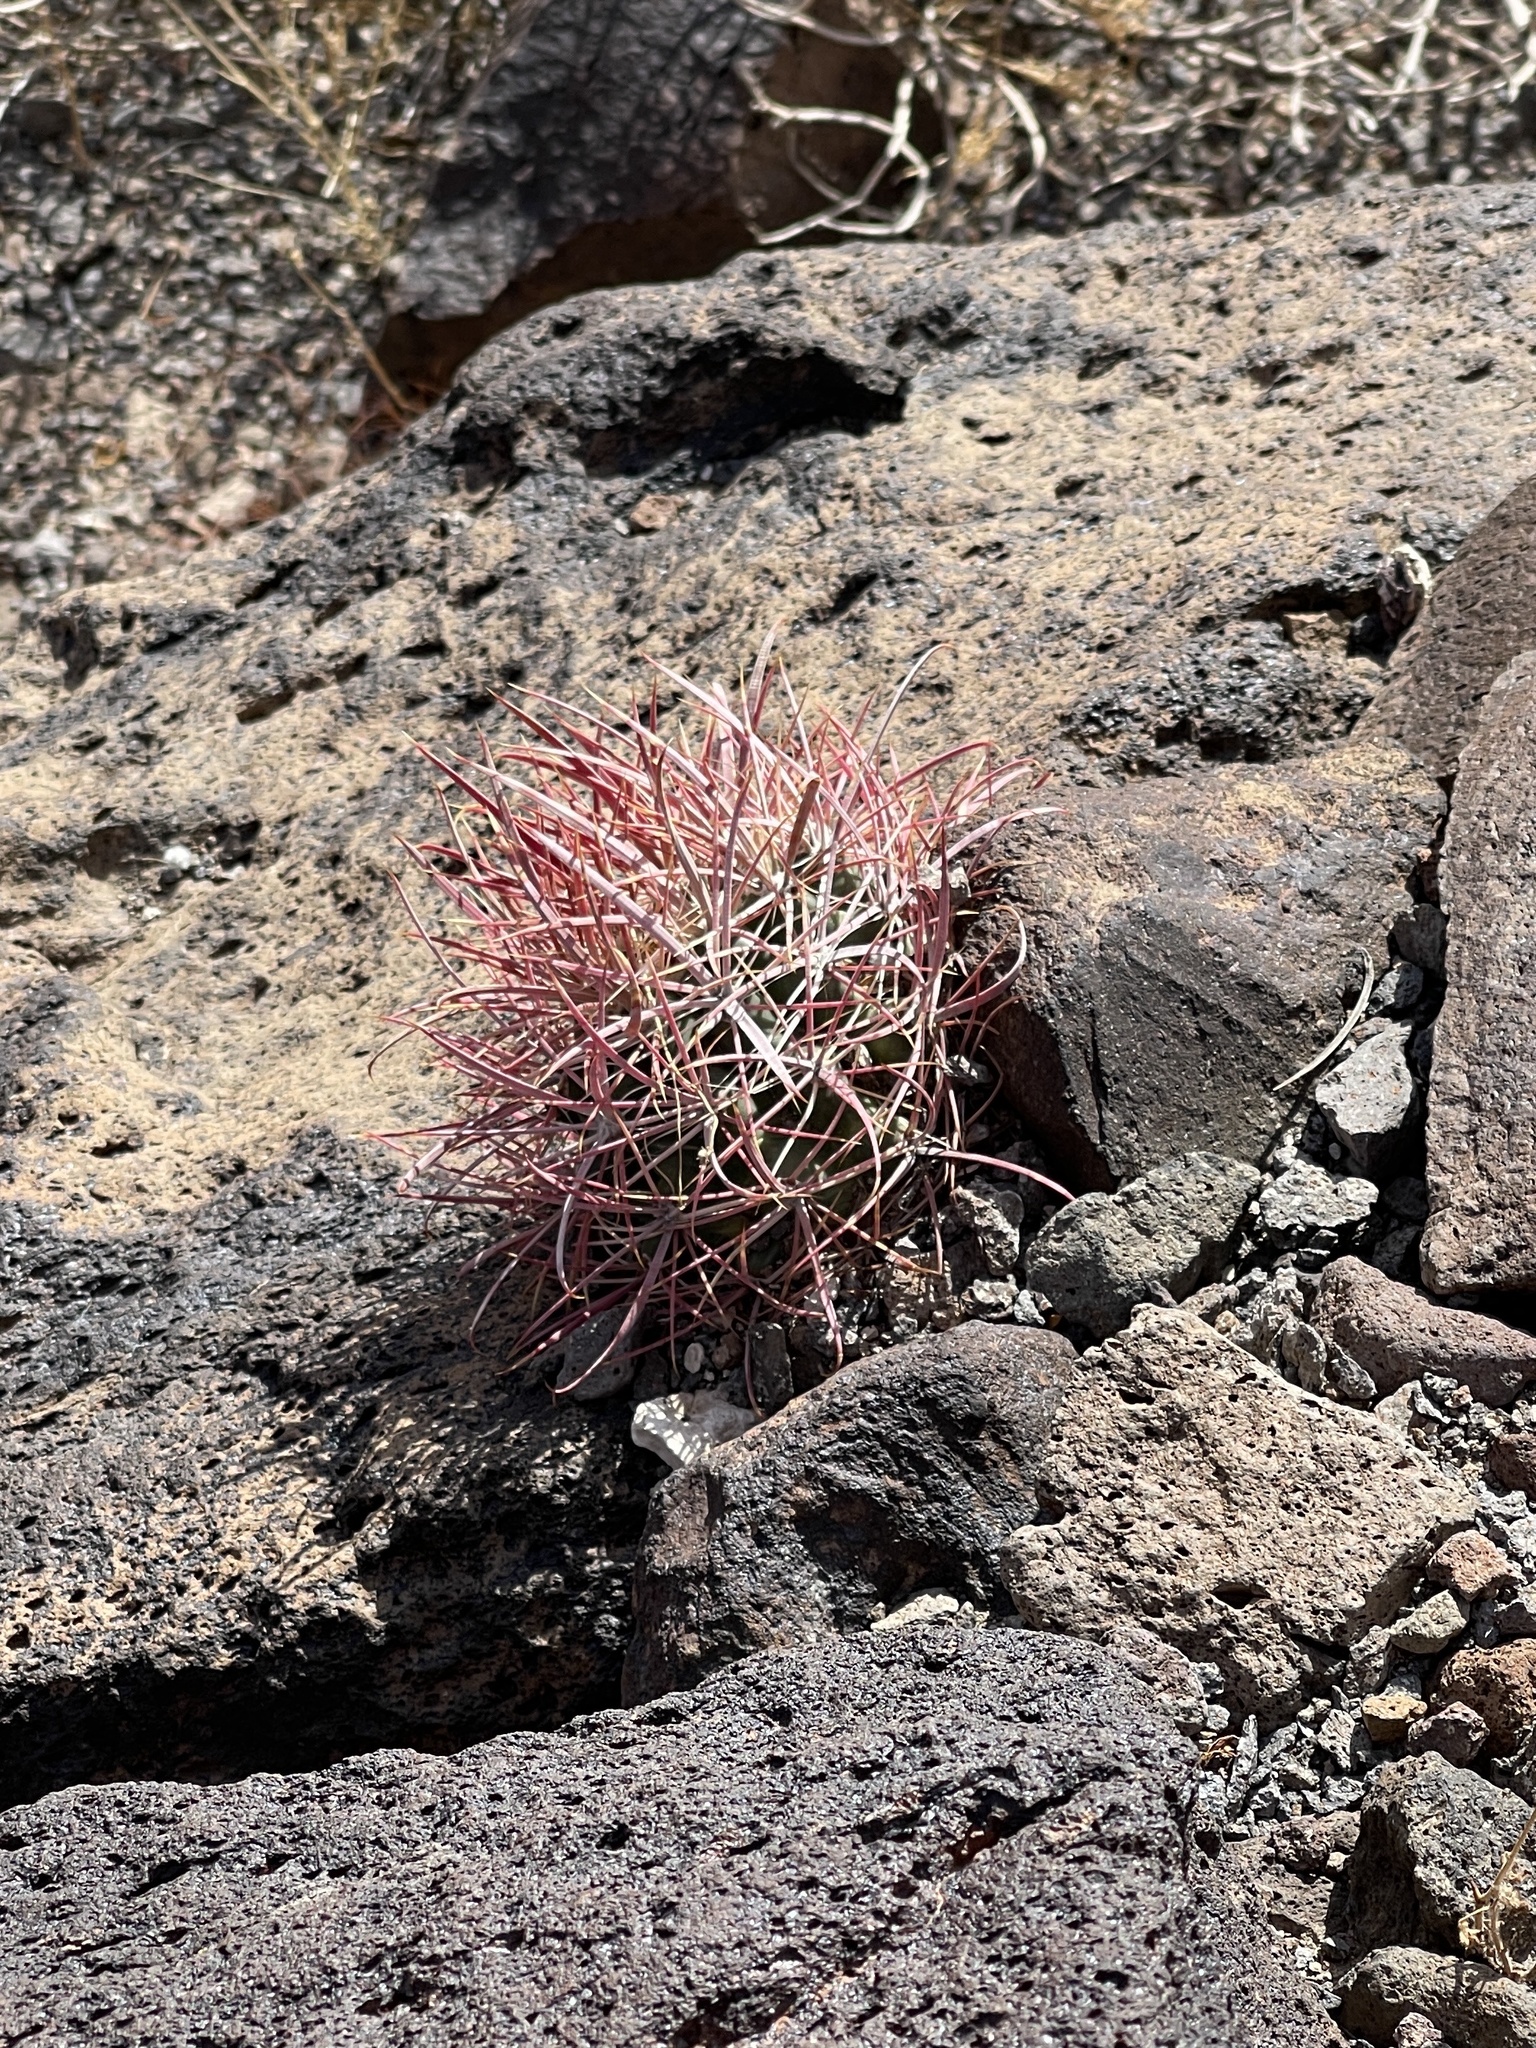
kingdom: Plantae
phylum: Tracheophyta
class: Magnoliopsida
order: Caryophyllales
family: Cactaceae
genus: Ferocactus
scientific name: Ferocactus cylindraceus
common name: California barrel cactus
